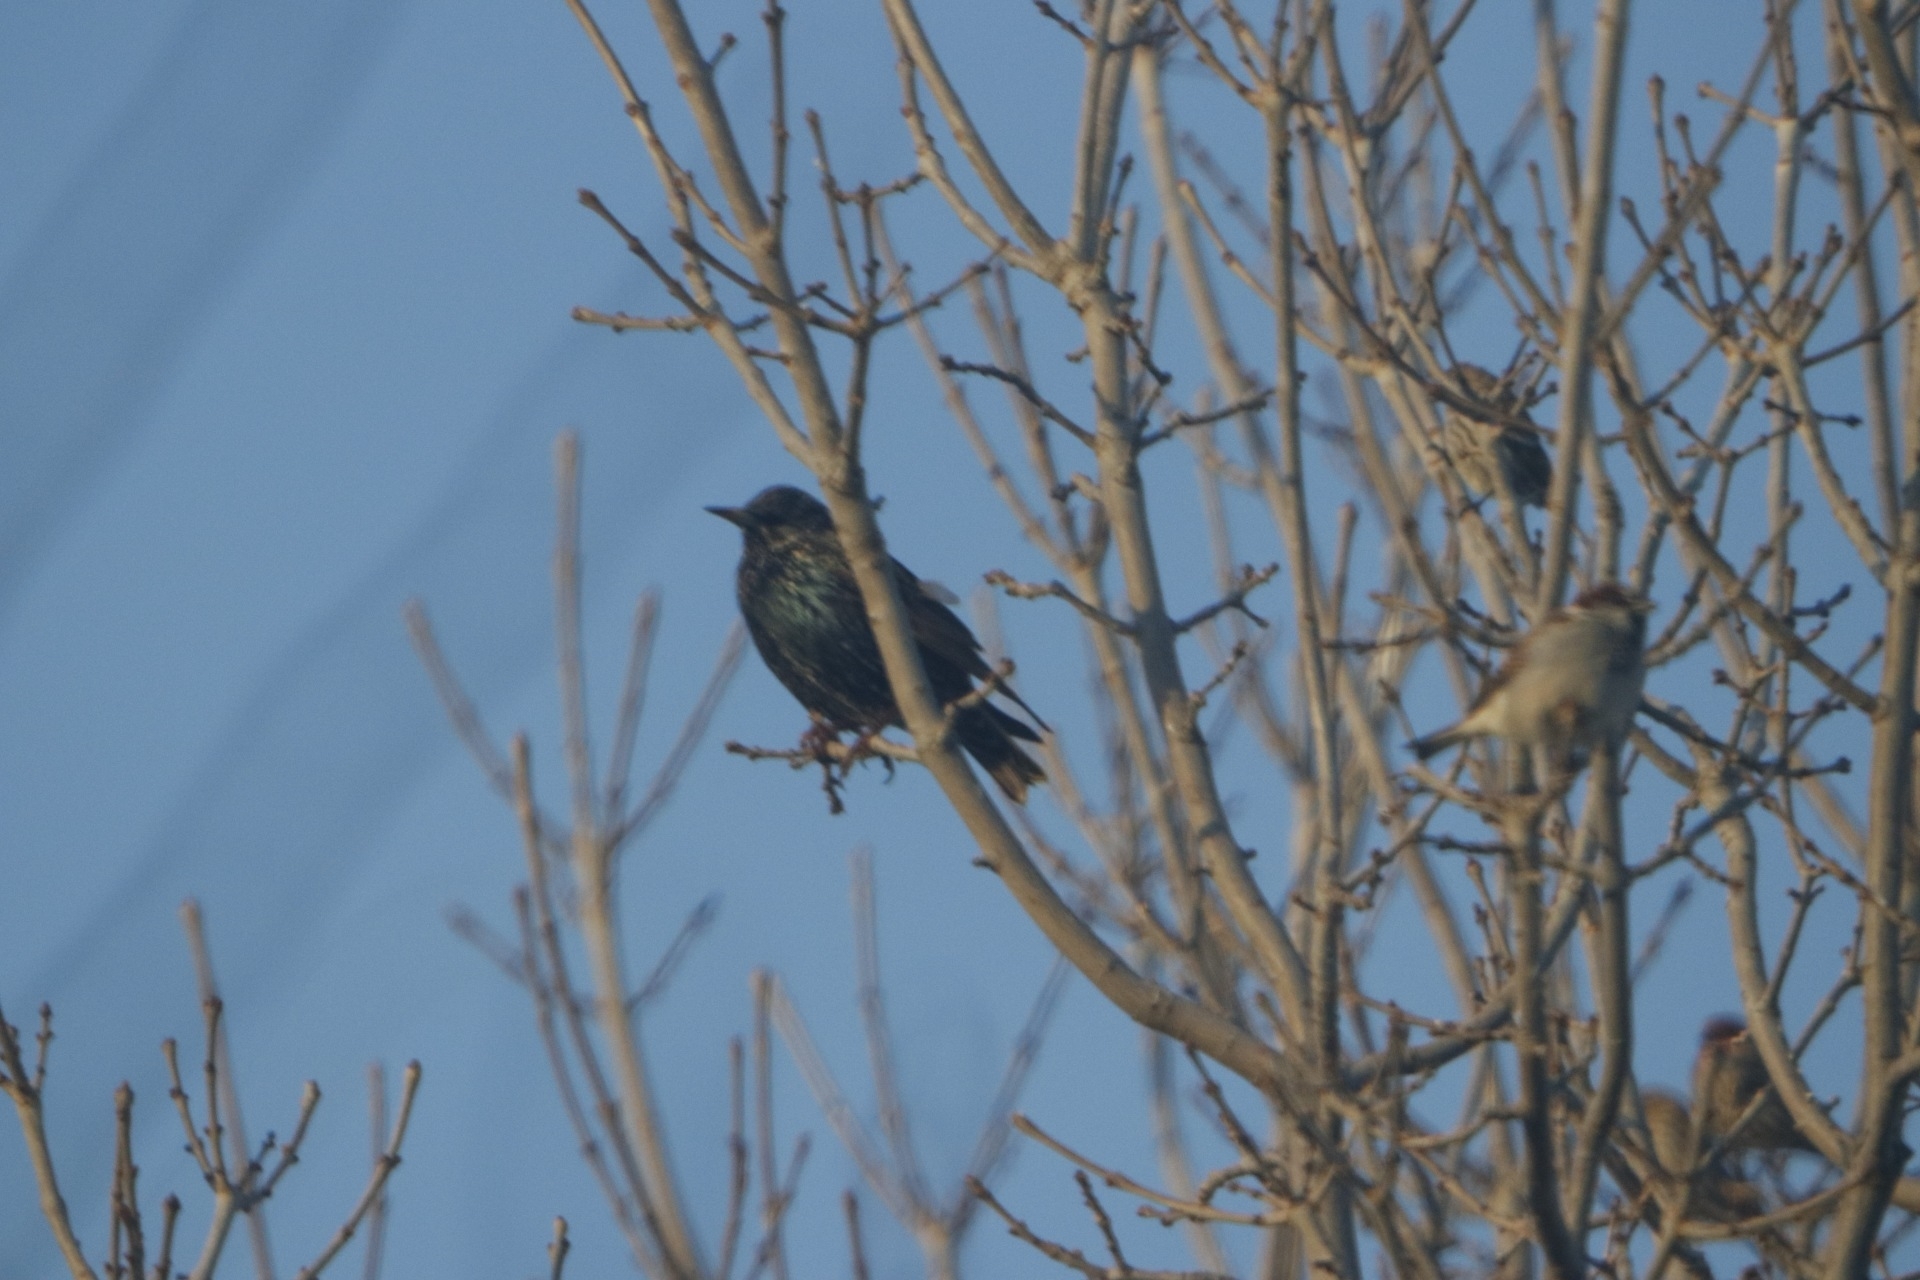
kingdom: Animalia
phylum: Chordata
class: Aves
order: Passeriformes
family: Sturnidae
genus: Sturnus
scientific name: Sturnus vulgaris
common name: Common starling
